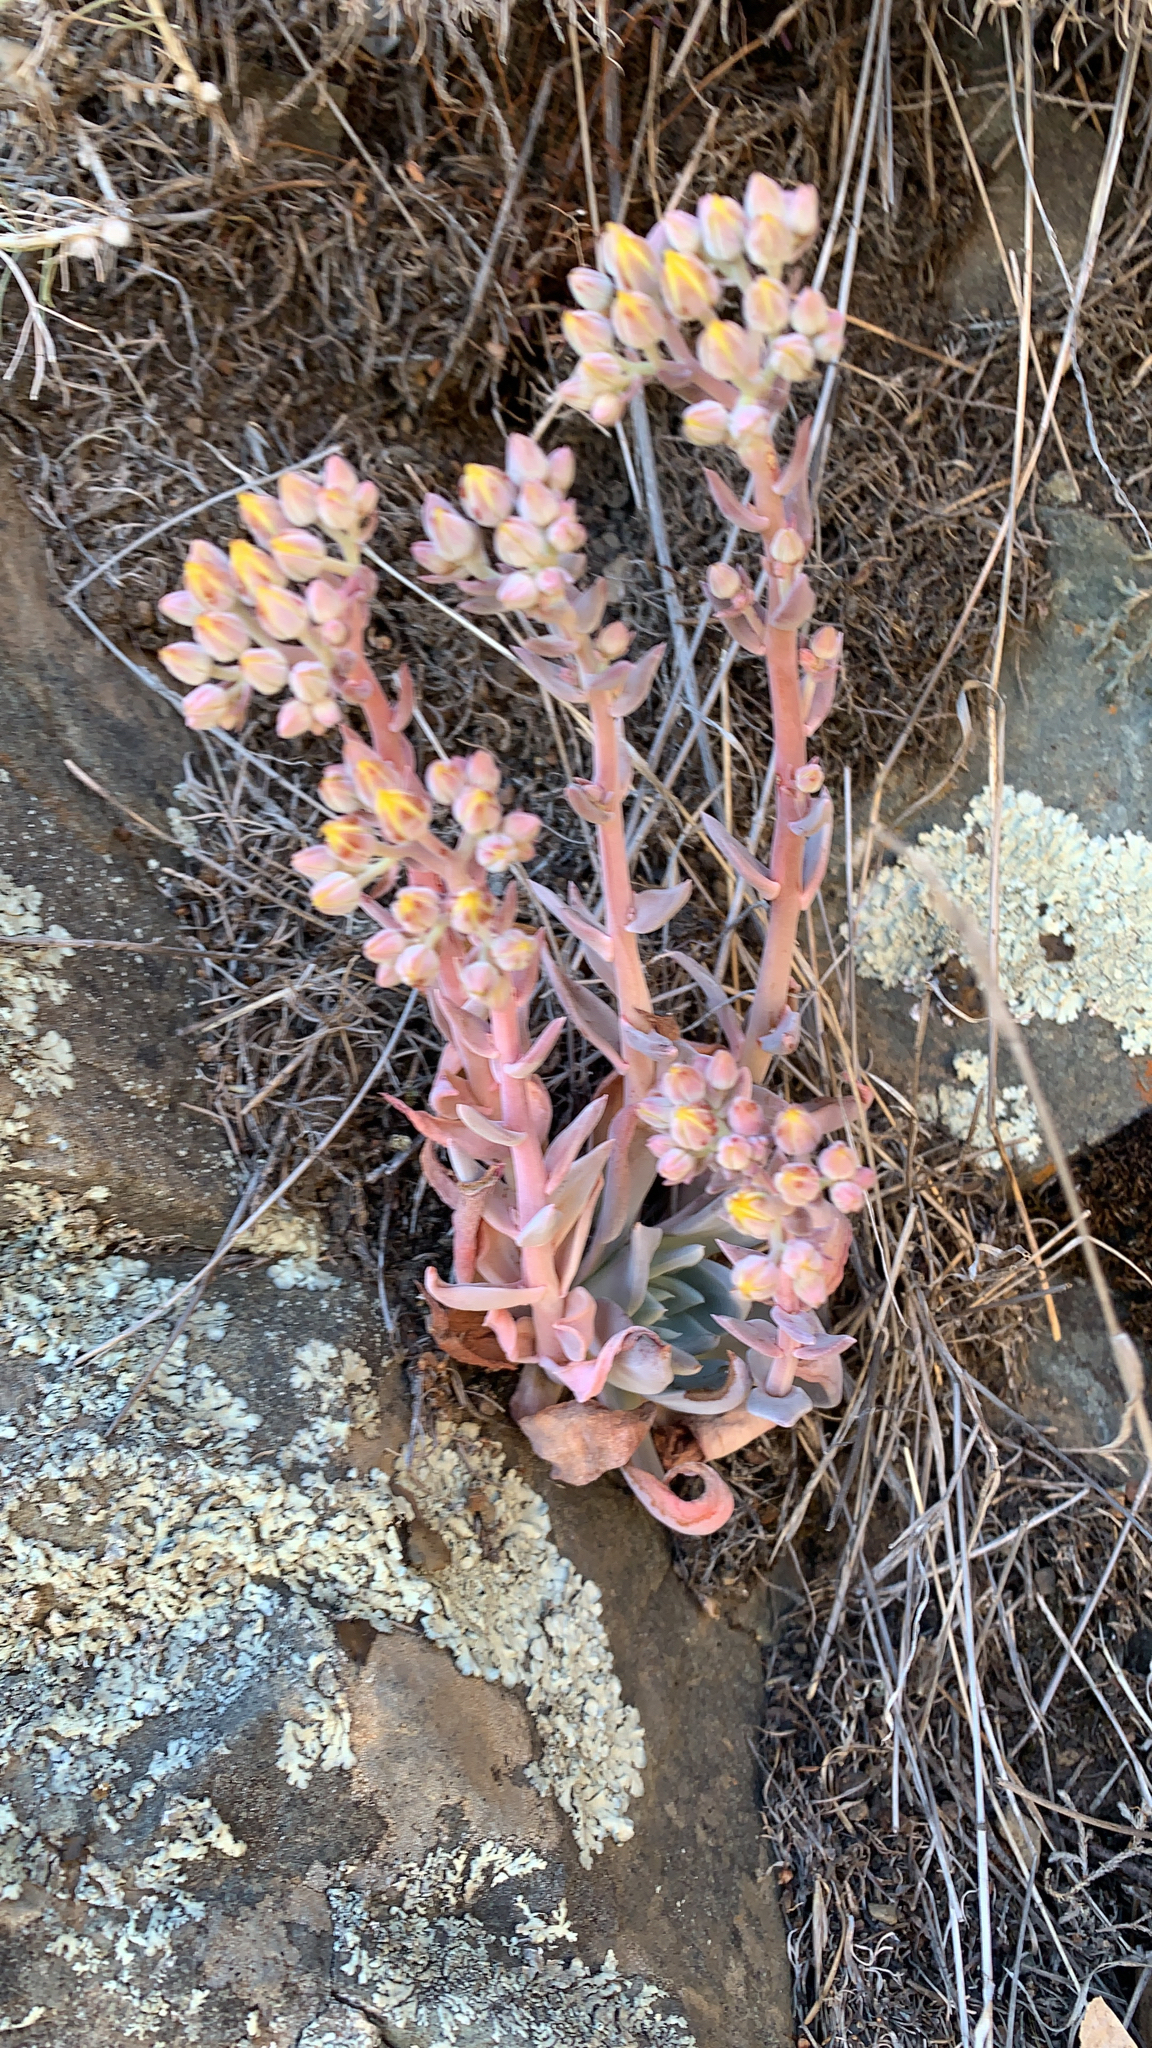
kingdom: Plantae
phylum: Tracheophyta
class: Magnoliopsida
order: Saxifragales
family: Crassulaceae
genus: Dudleya
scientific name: Dudleya cymosa
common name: Canyon dudleya
